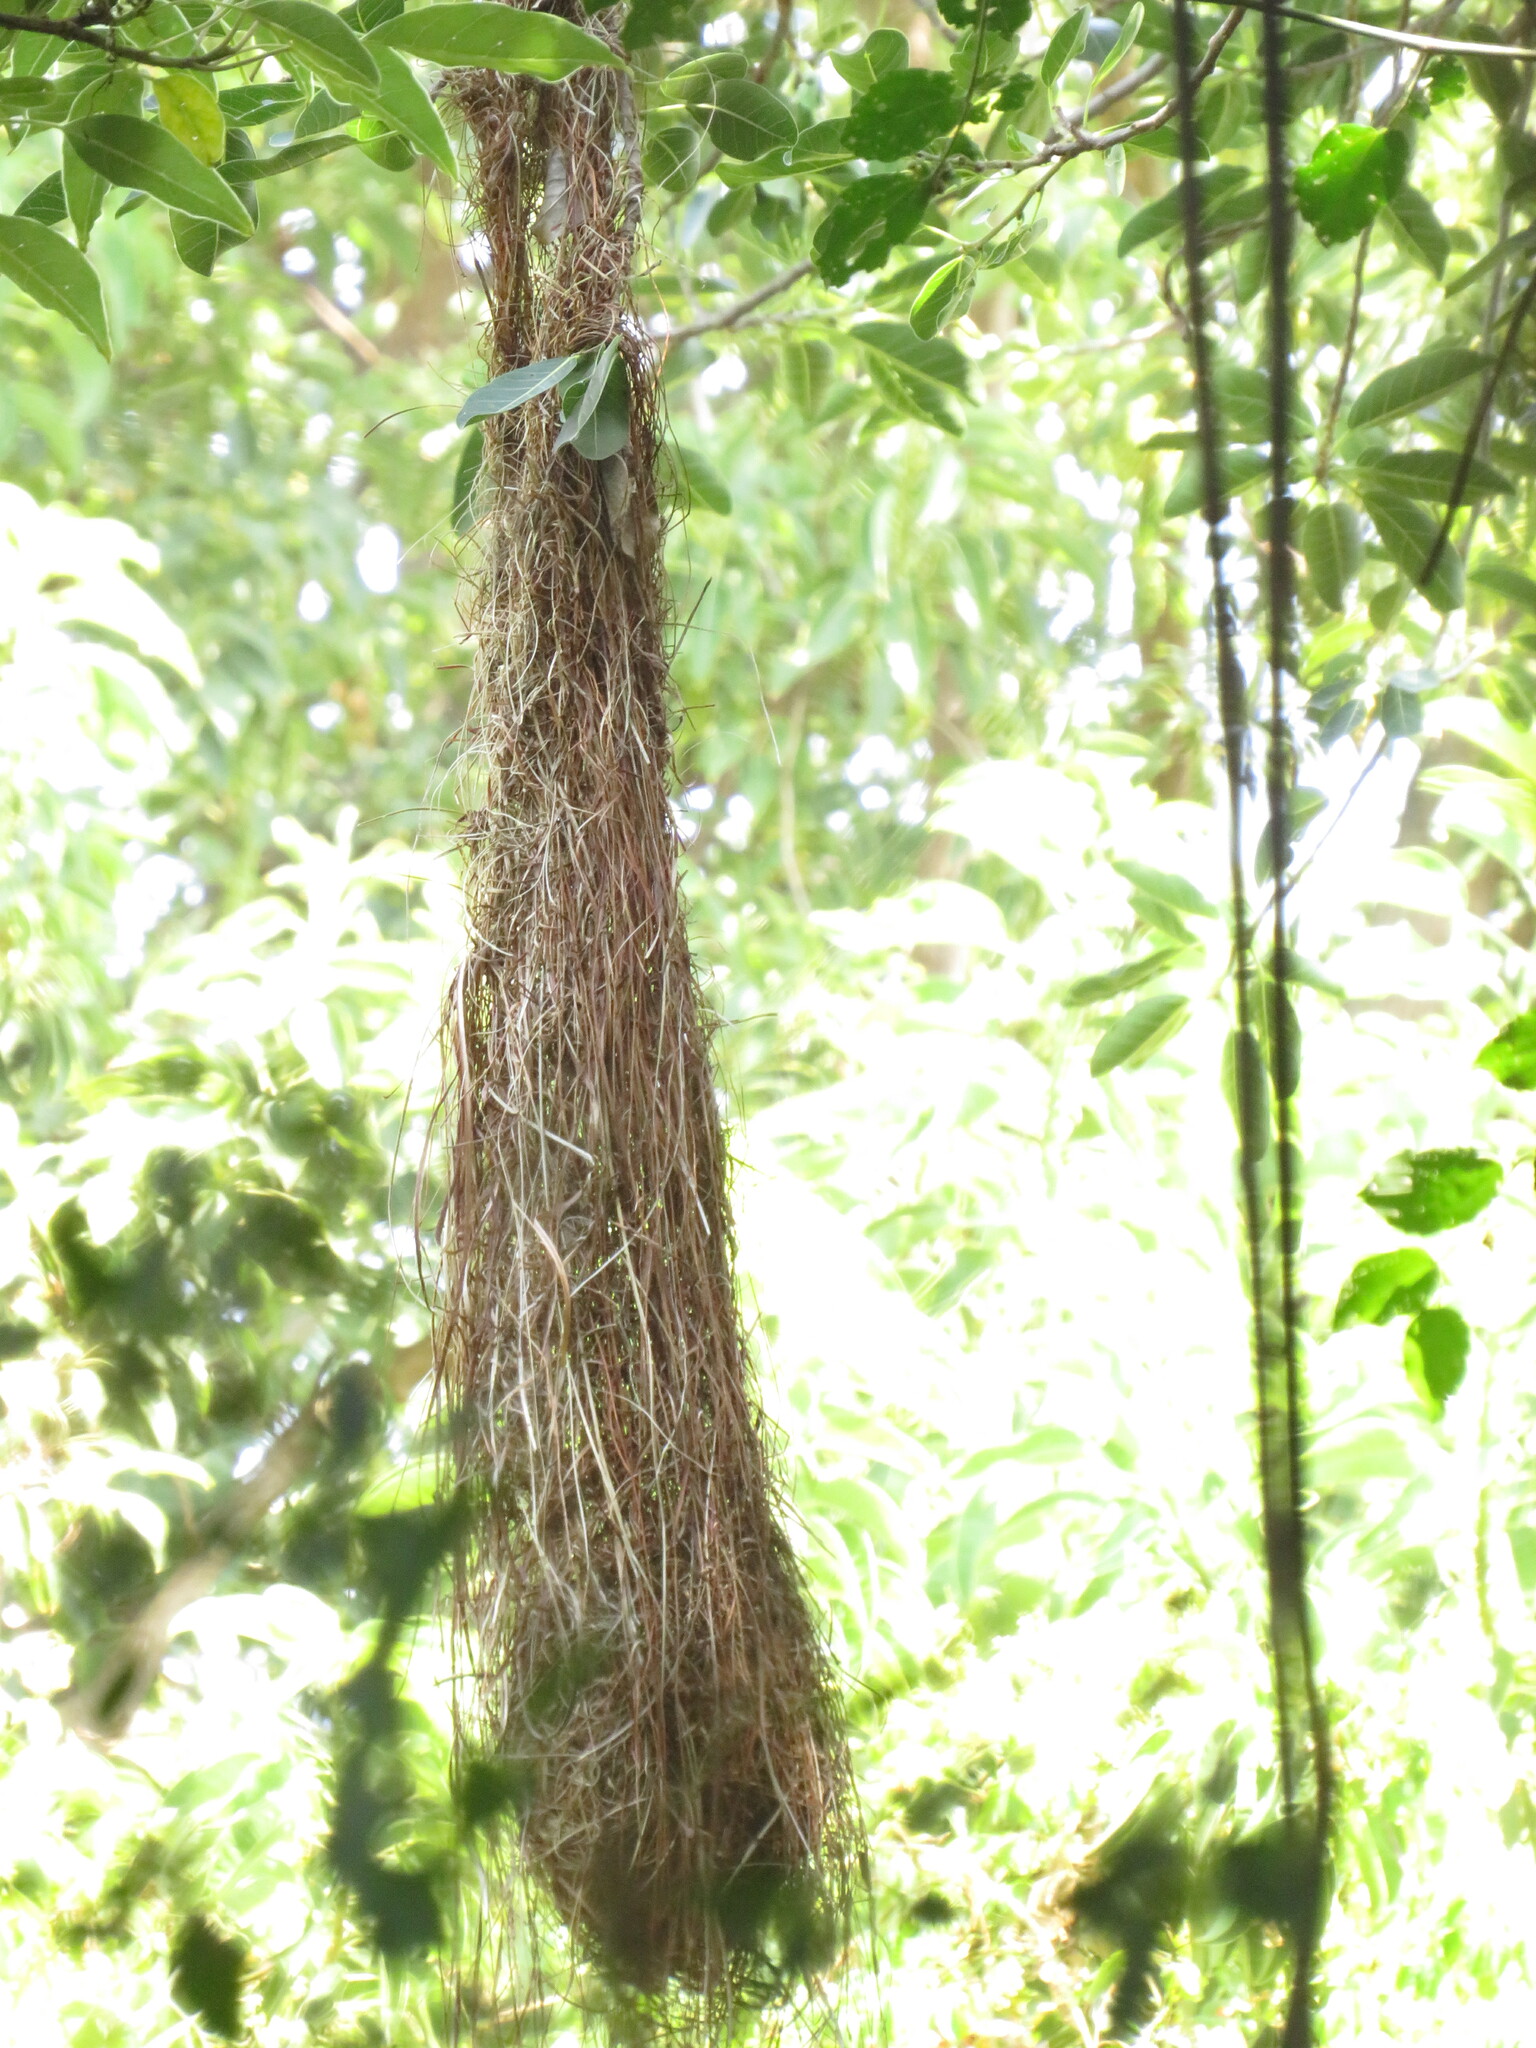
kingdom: Animalia
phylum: Chordata
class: Aves
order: Passeriformes
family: Icteridae
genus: Cacicus
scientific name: Cacicus solitarius
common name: Solitary cacique
